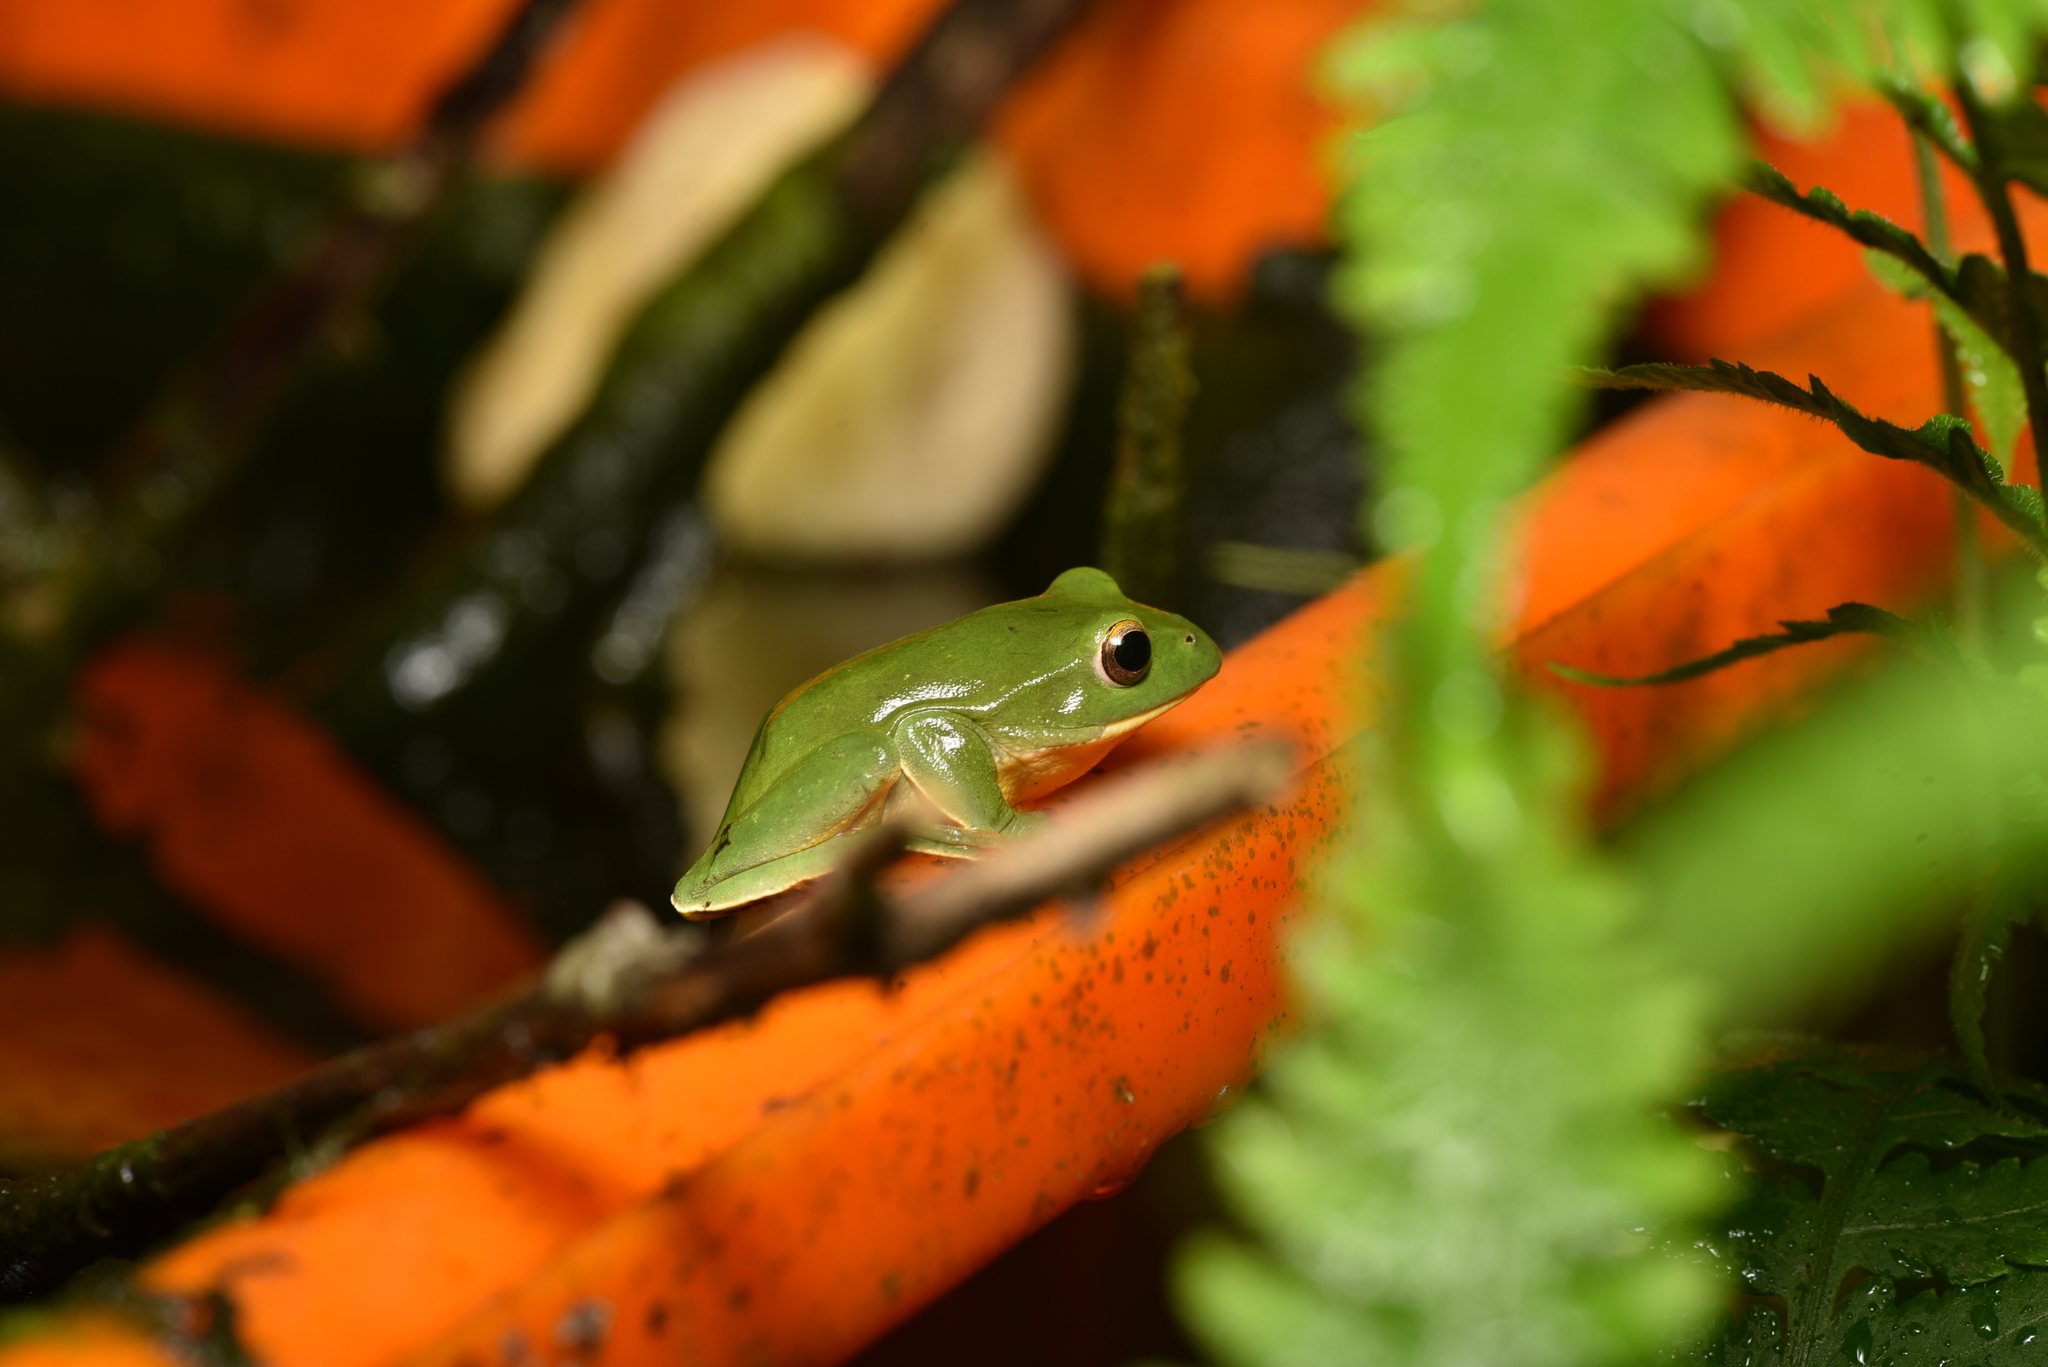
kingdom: Animalia
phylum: Chordata
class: Amphibia
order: Anura
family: Rhacophoridae
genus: Zhangixalus
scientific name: Zhangixalus moltrechti
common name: Moltrecht's treefrog
